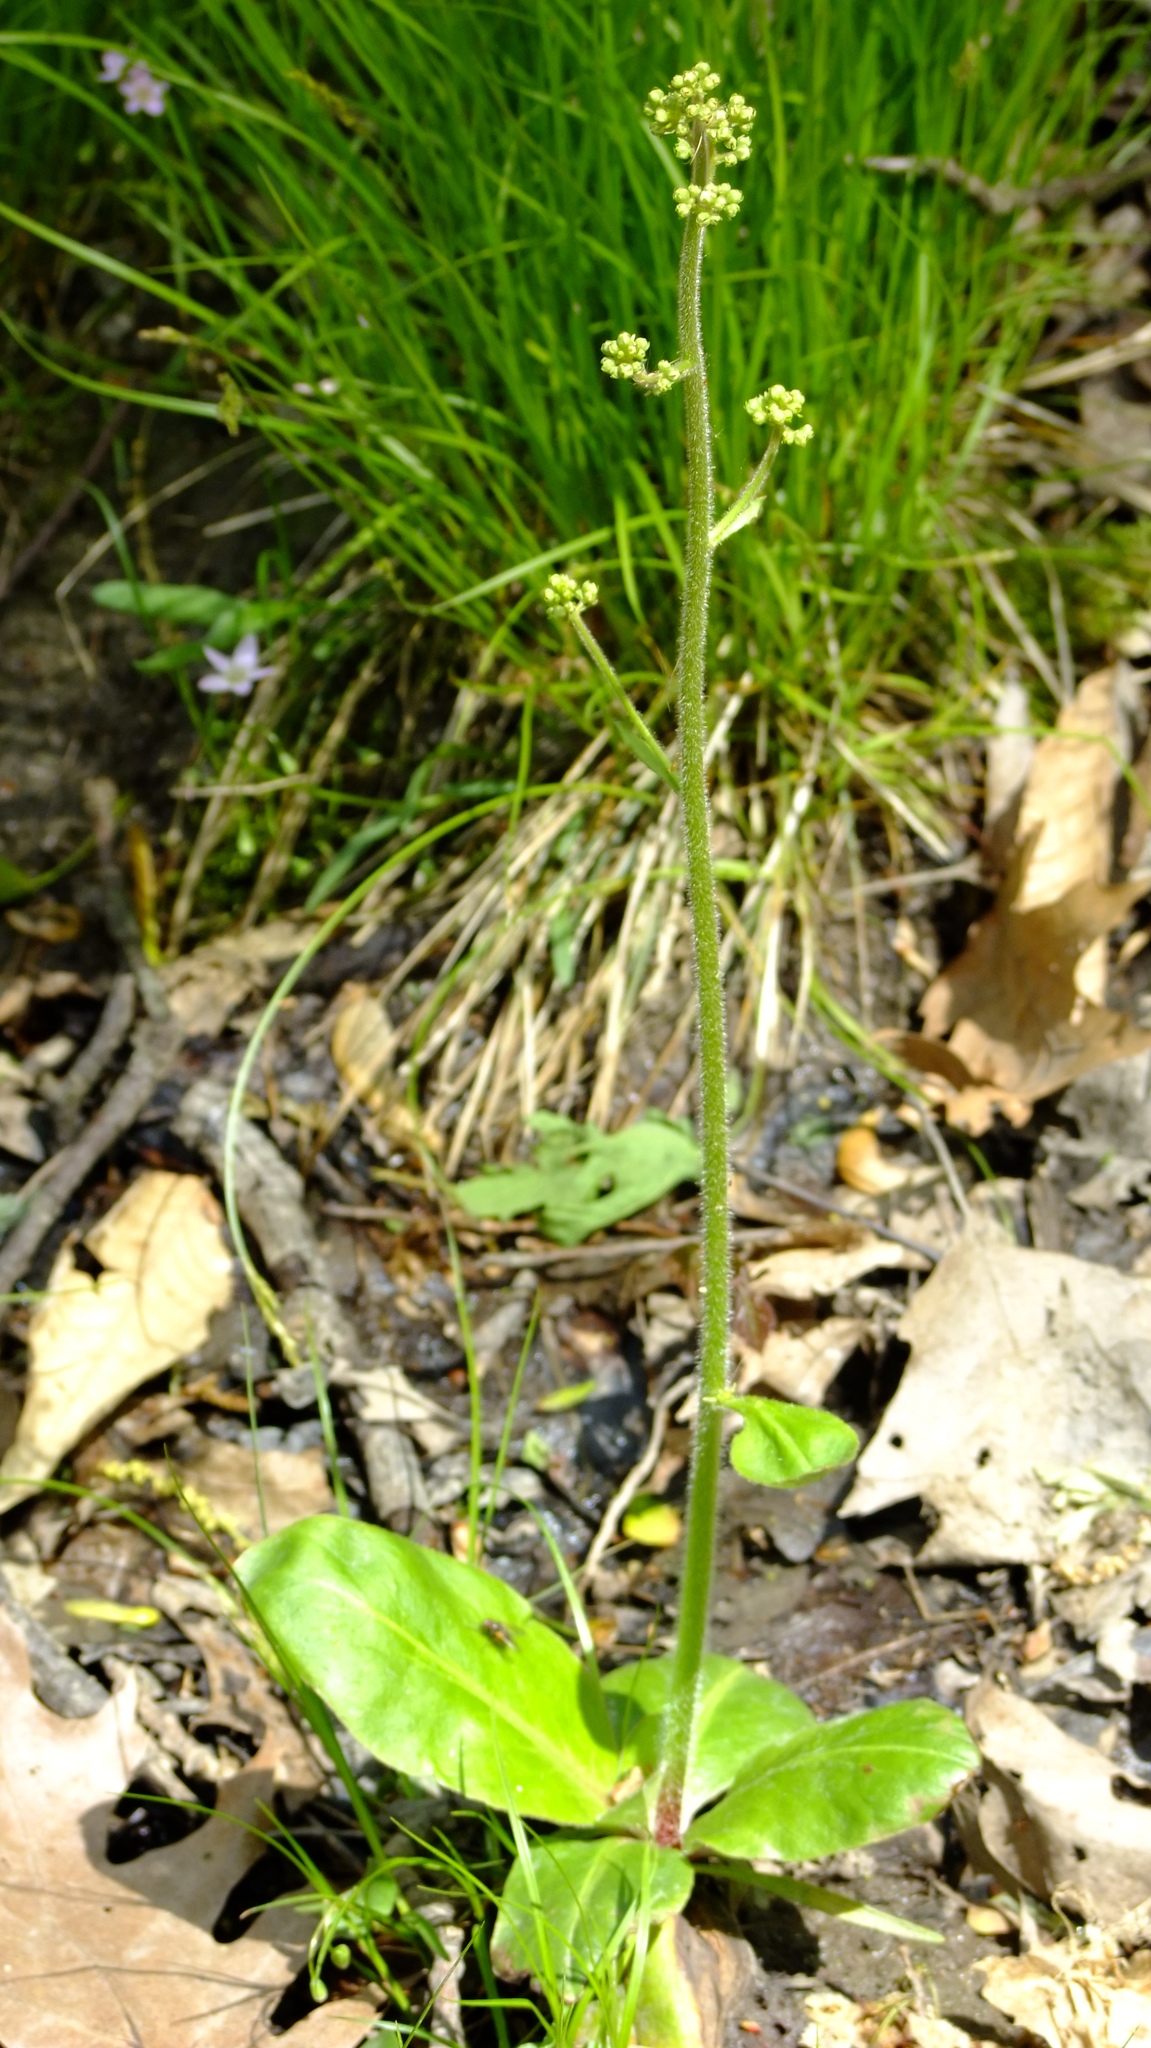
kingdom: Plantae
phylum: Tracheophyta
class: Magnoliopsida
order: Saxifragales
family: Saxifragaceae
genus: Micranthes
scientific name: Micranthes pensylvanica
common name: Marsh saxifrage
